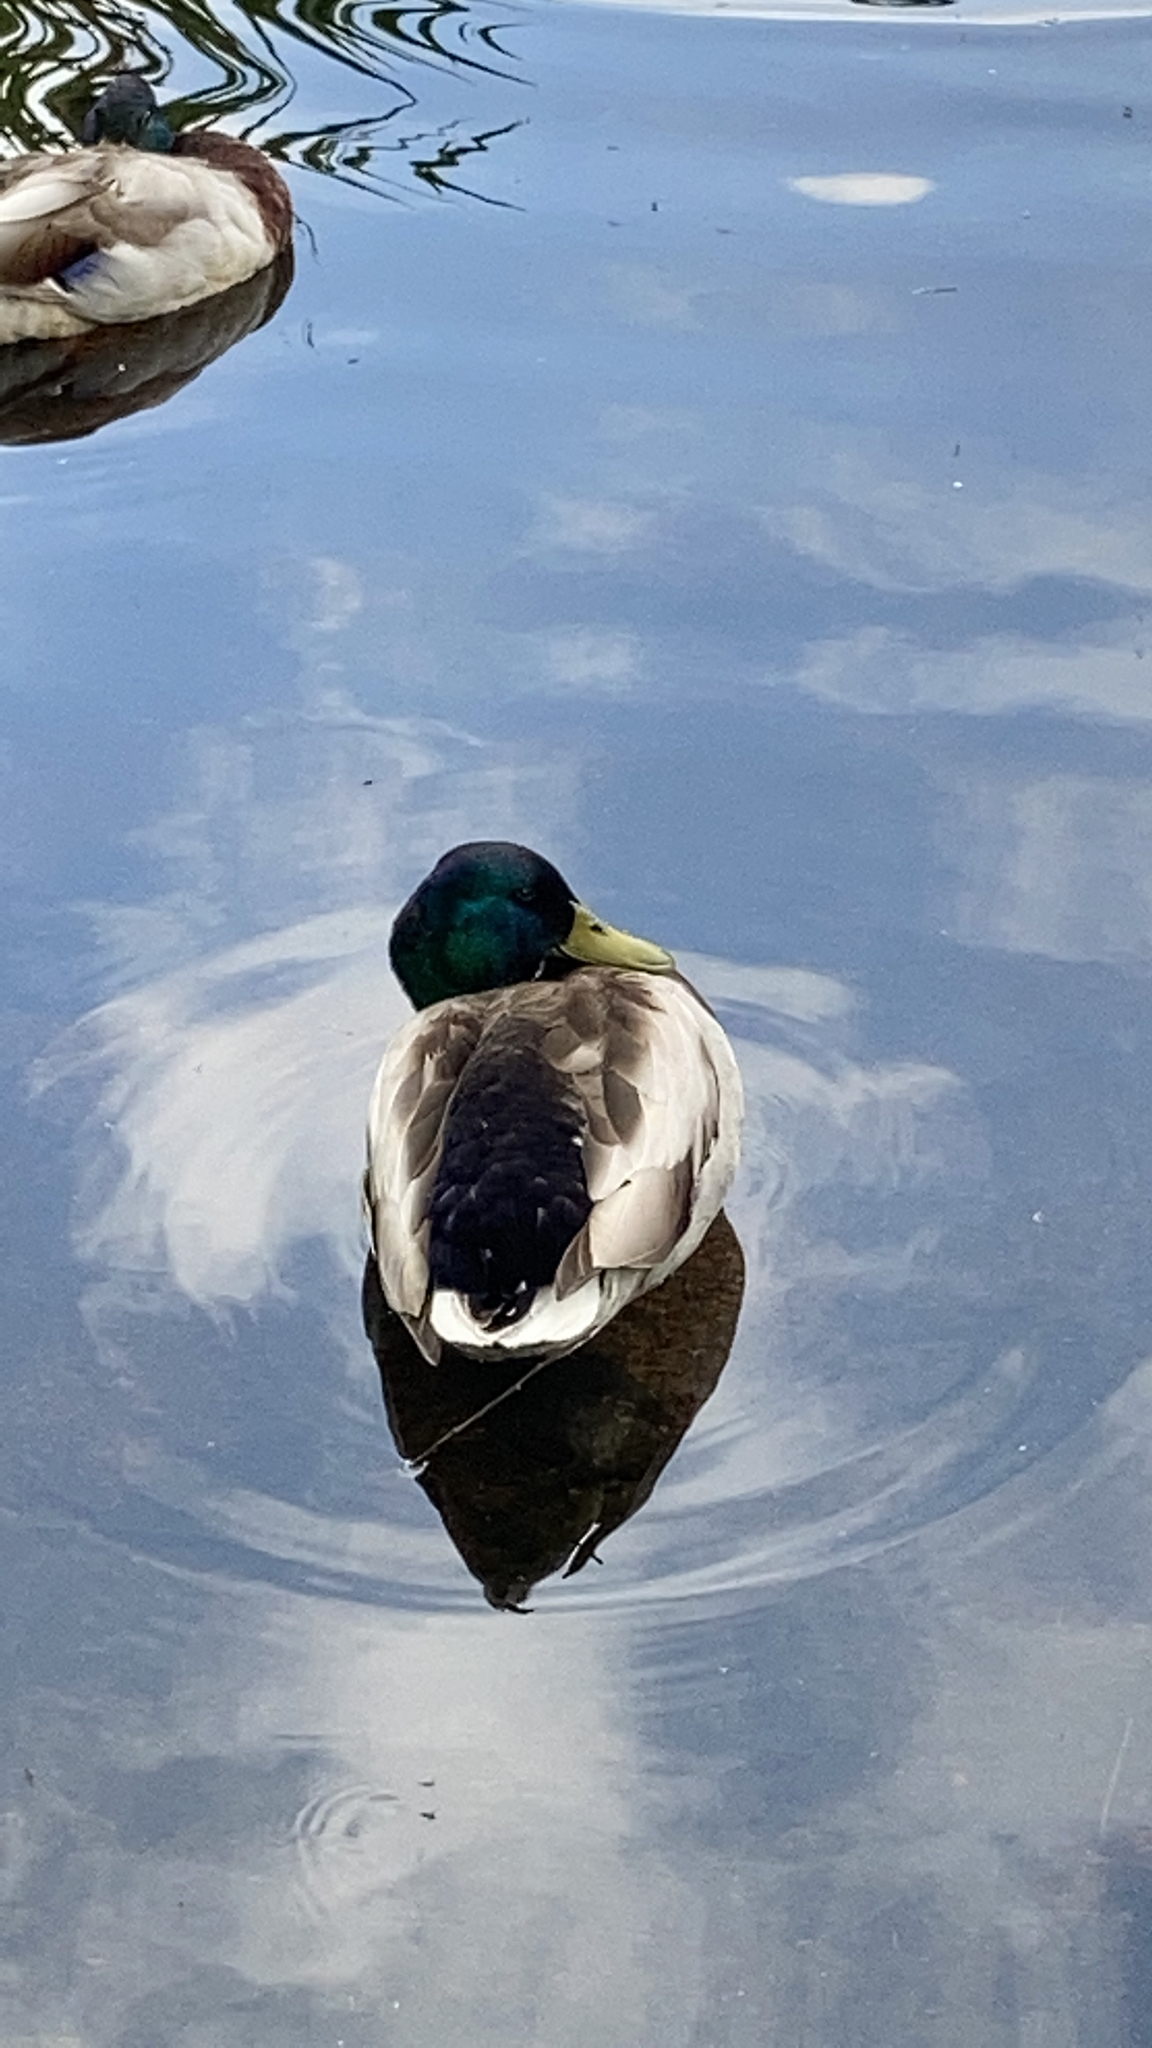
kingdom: Animalia
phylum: Chordata
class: Aves
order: Anseriformes
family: Anatidae
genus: Anas
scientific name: Anas platyrhynchos
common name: Mallard
